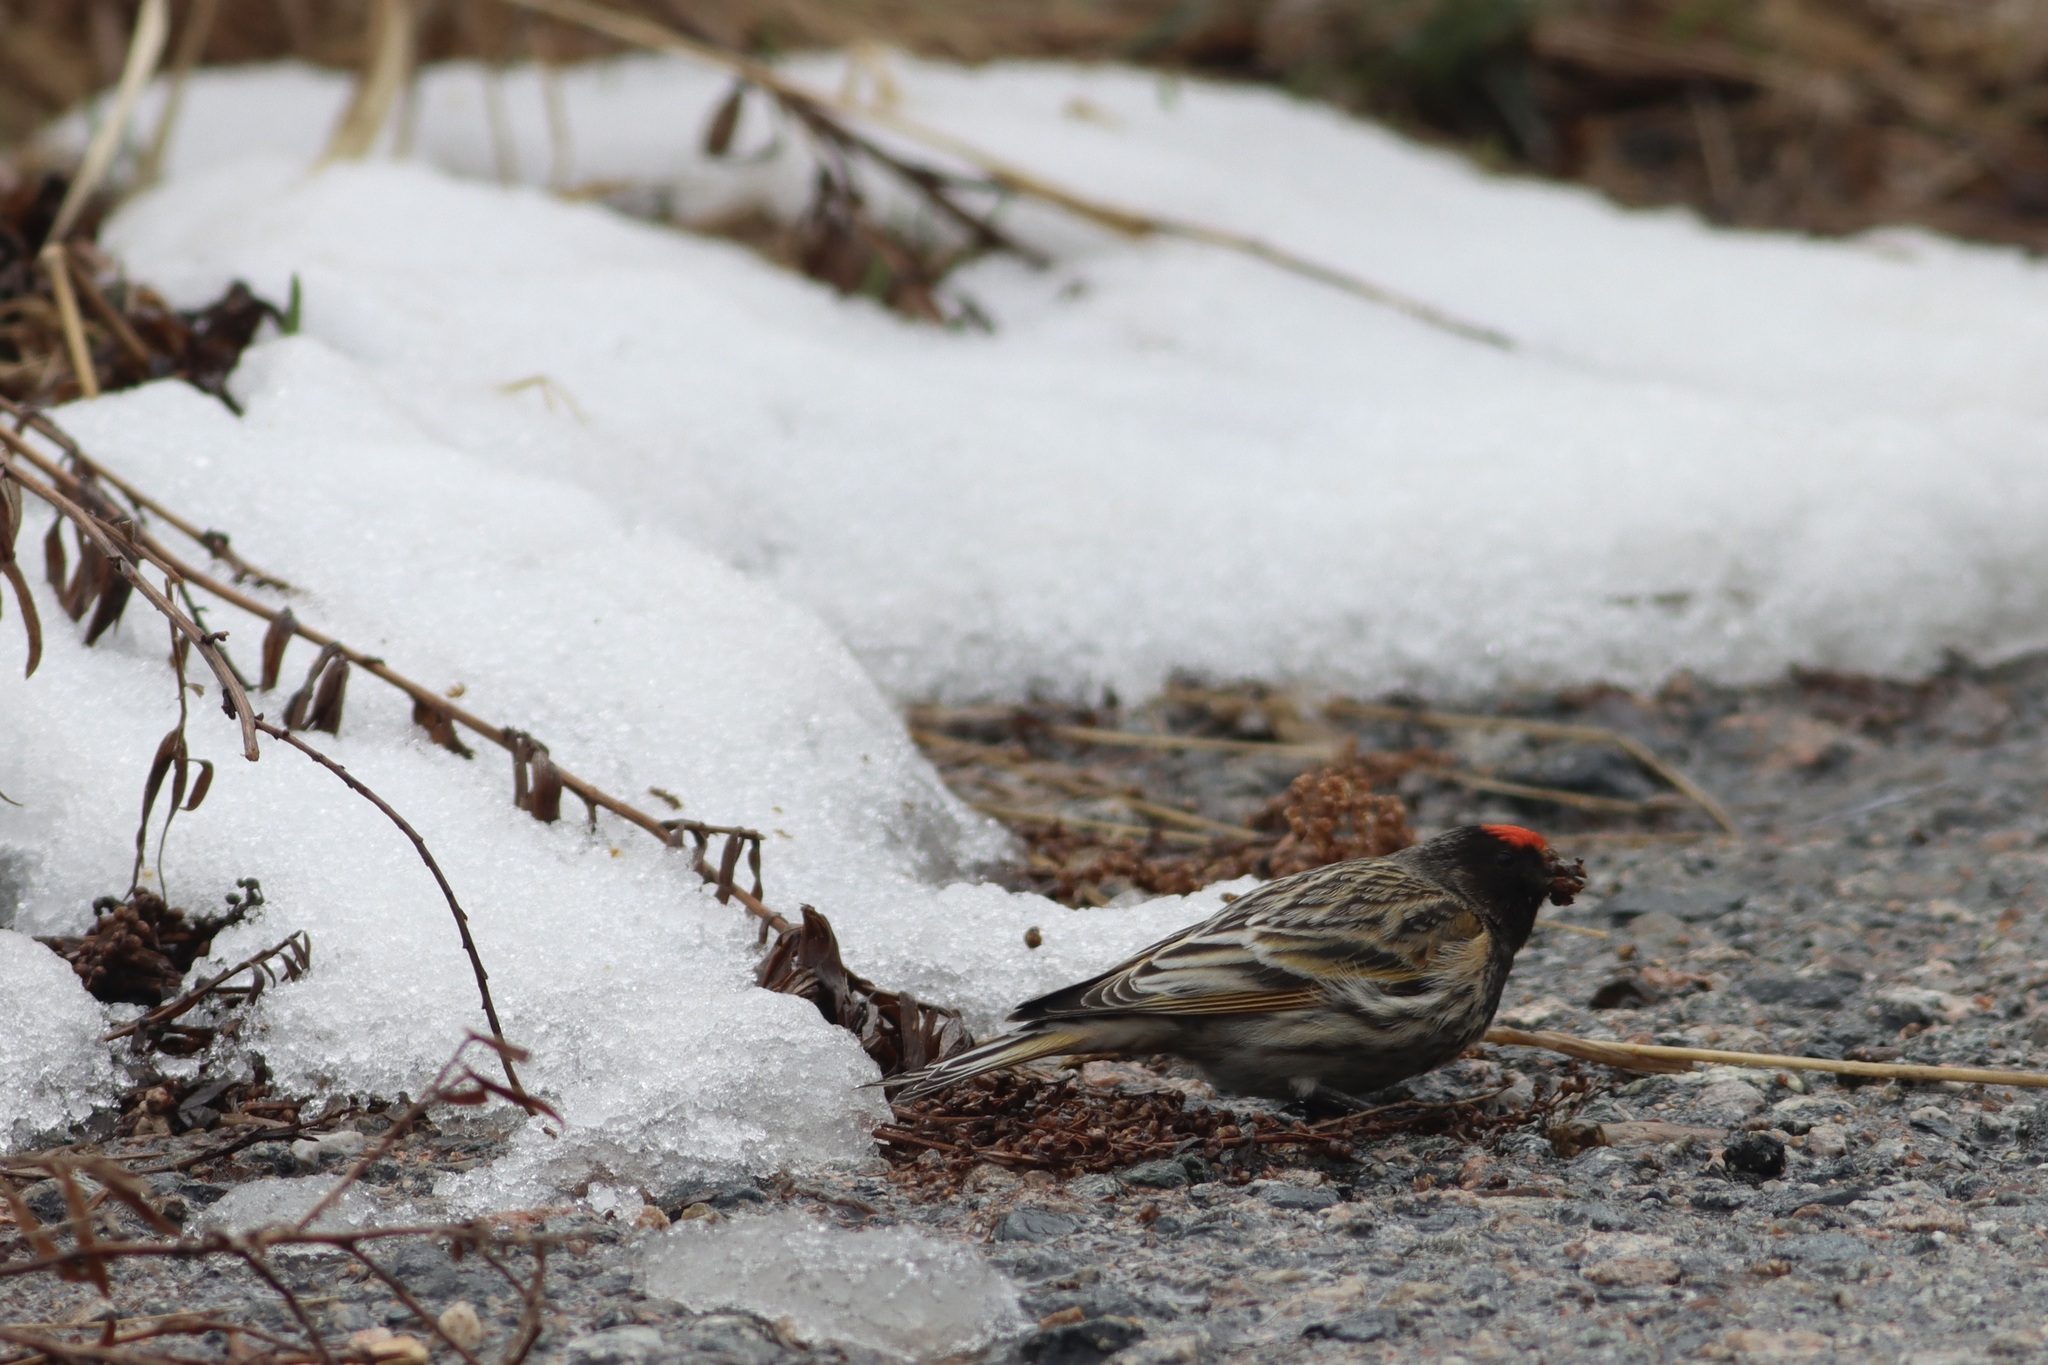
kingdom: Animalia
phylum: Chordata
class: Aves
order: Passeriformes
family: Fringillidae
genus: Serinus
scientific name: Serinus pusillus
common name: Red-fronted serin
